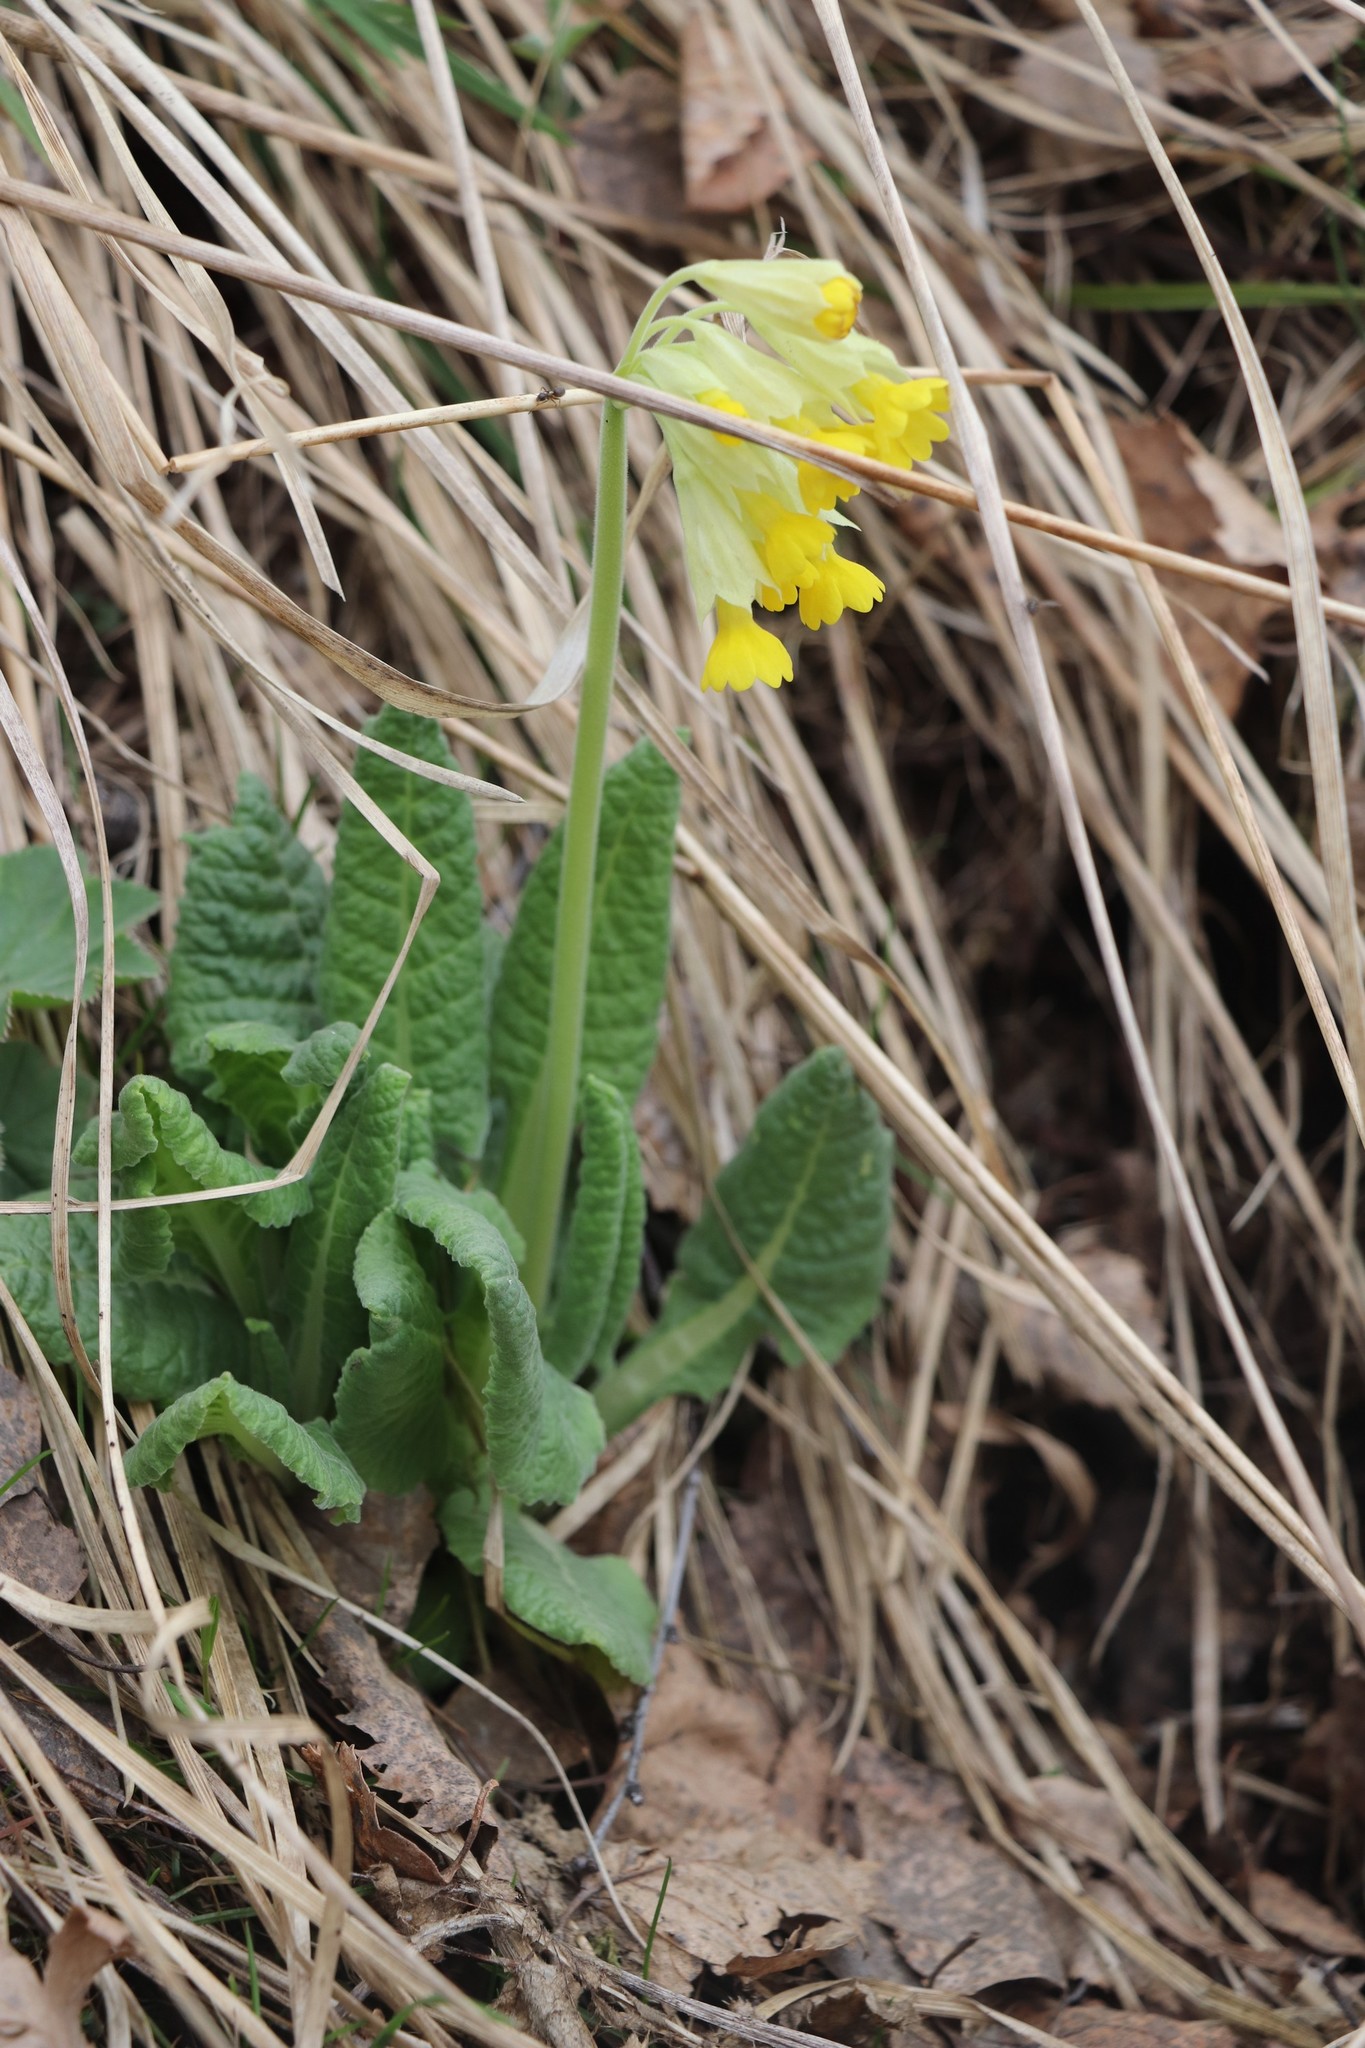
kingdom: Plantae
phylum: Tracheophyta
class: Magnoliopsida
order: Ericales
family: Primulaceae
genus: Primula
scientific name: Primula veris
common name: Cowslip
